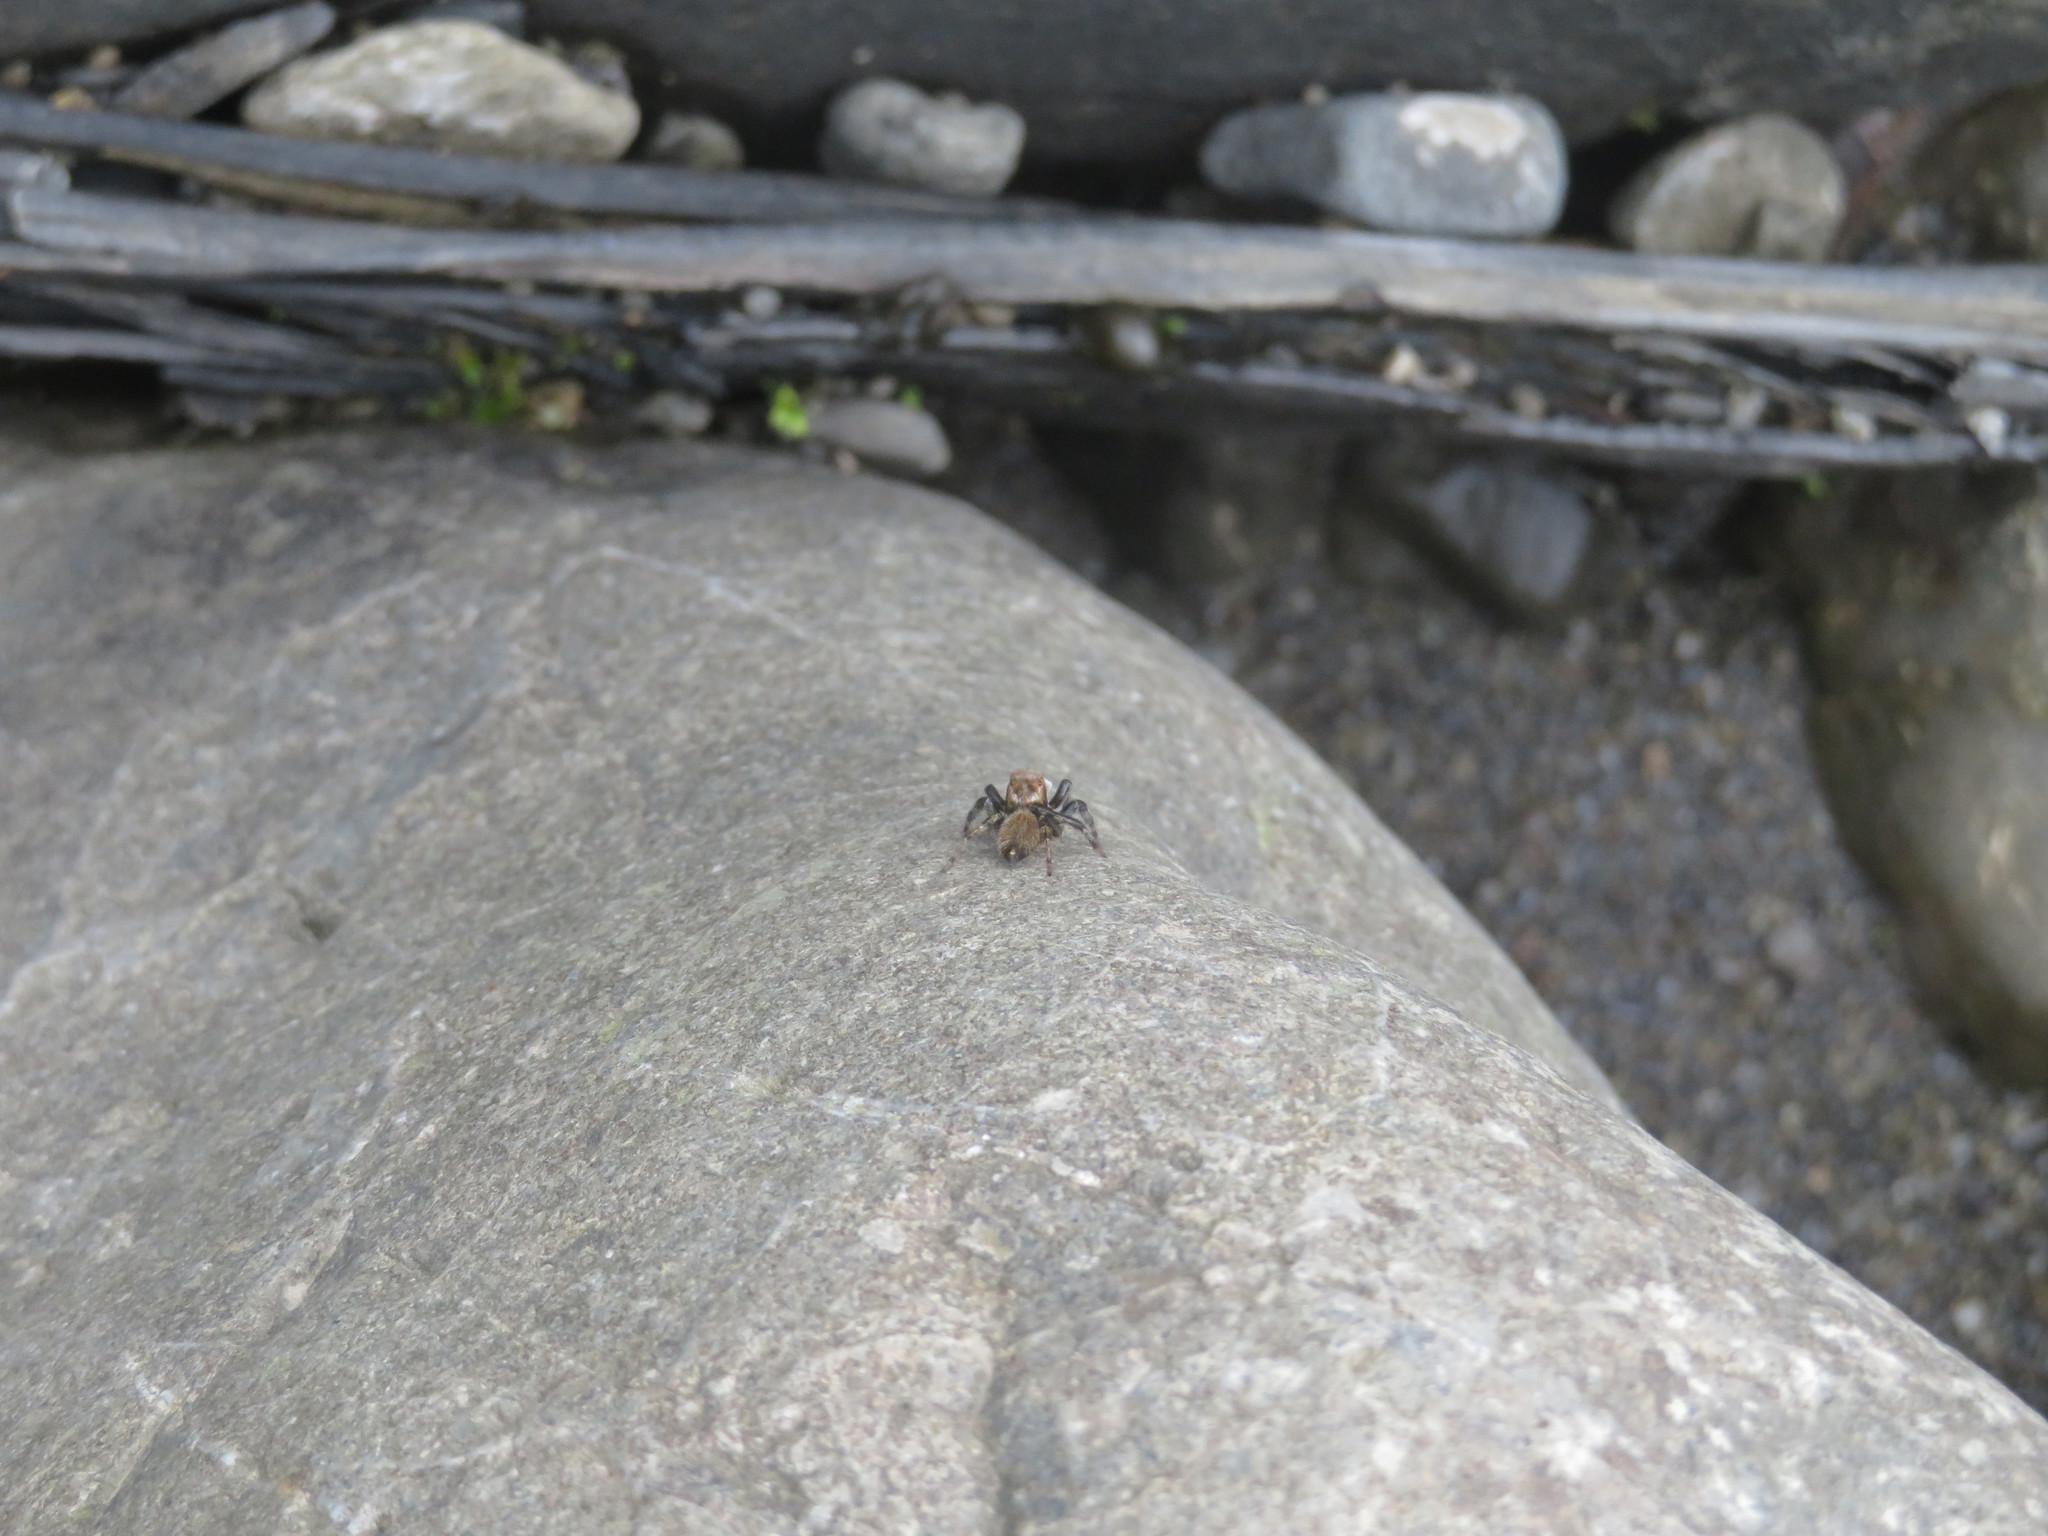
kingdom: Animalia
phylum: Arthropoda
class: Arachnida
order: Araneae
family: Salticidae
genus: Maratus
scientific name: Maratus griseus
